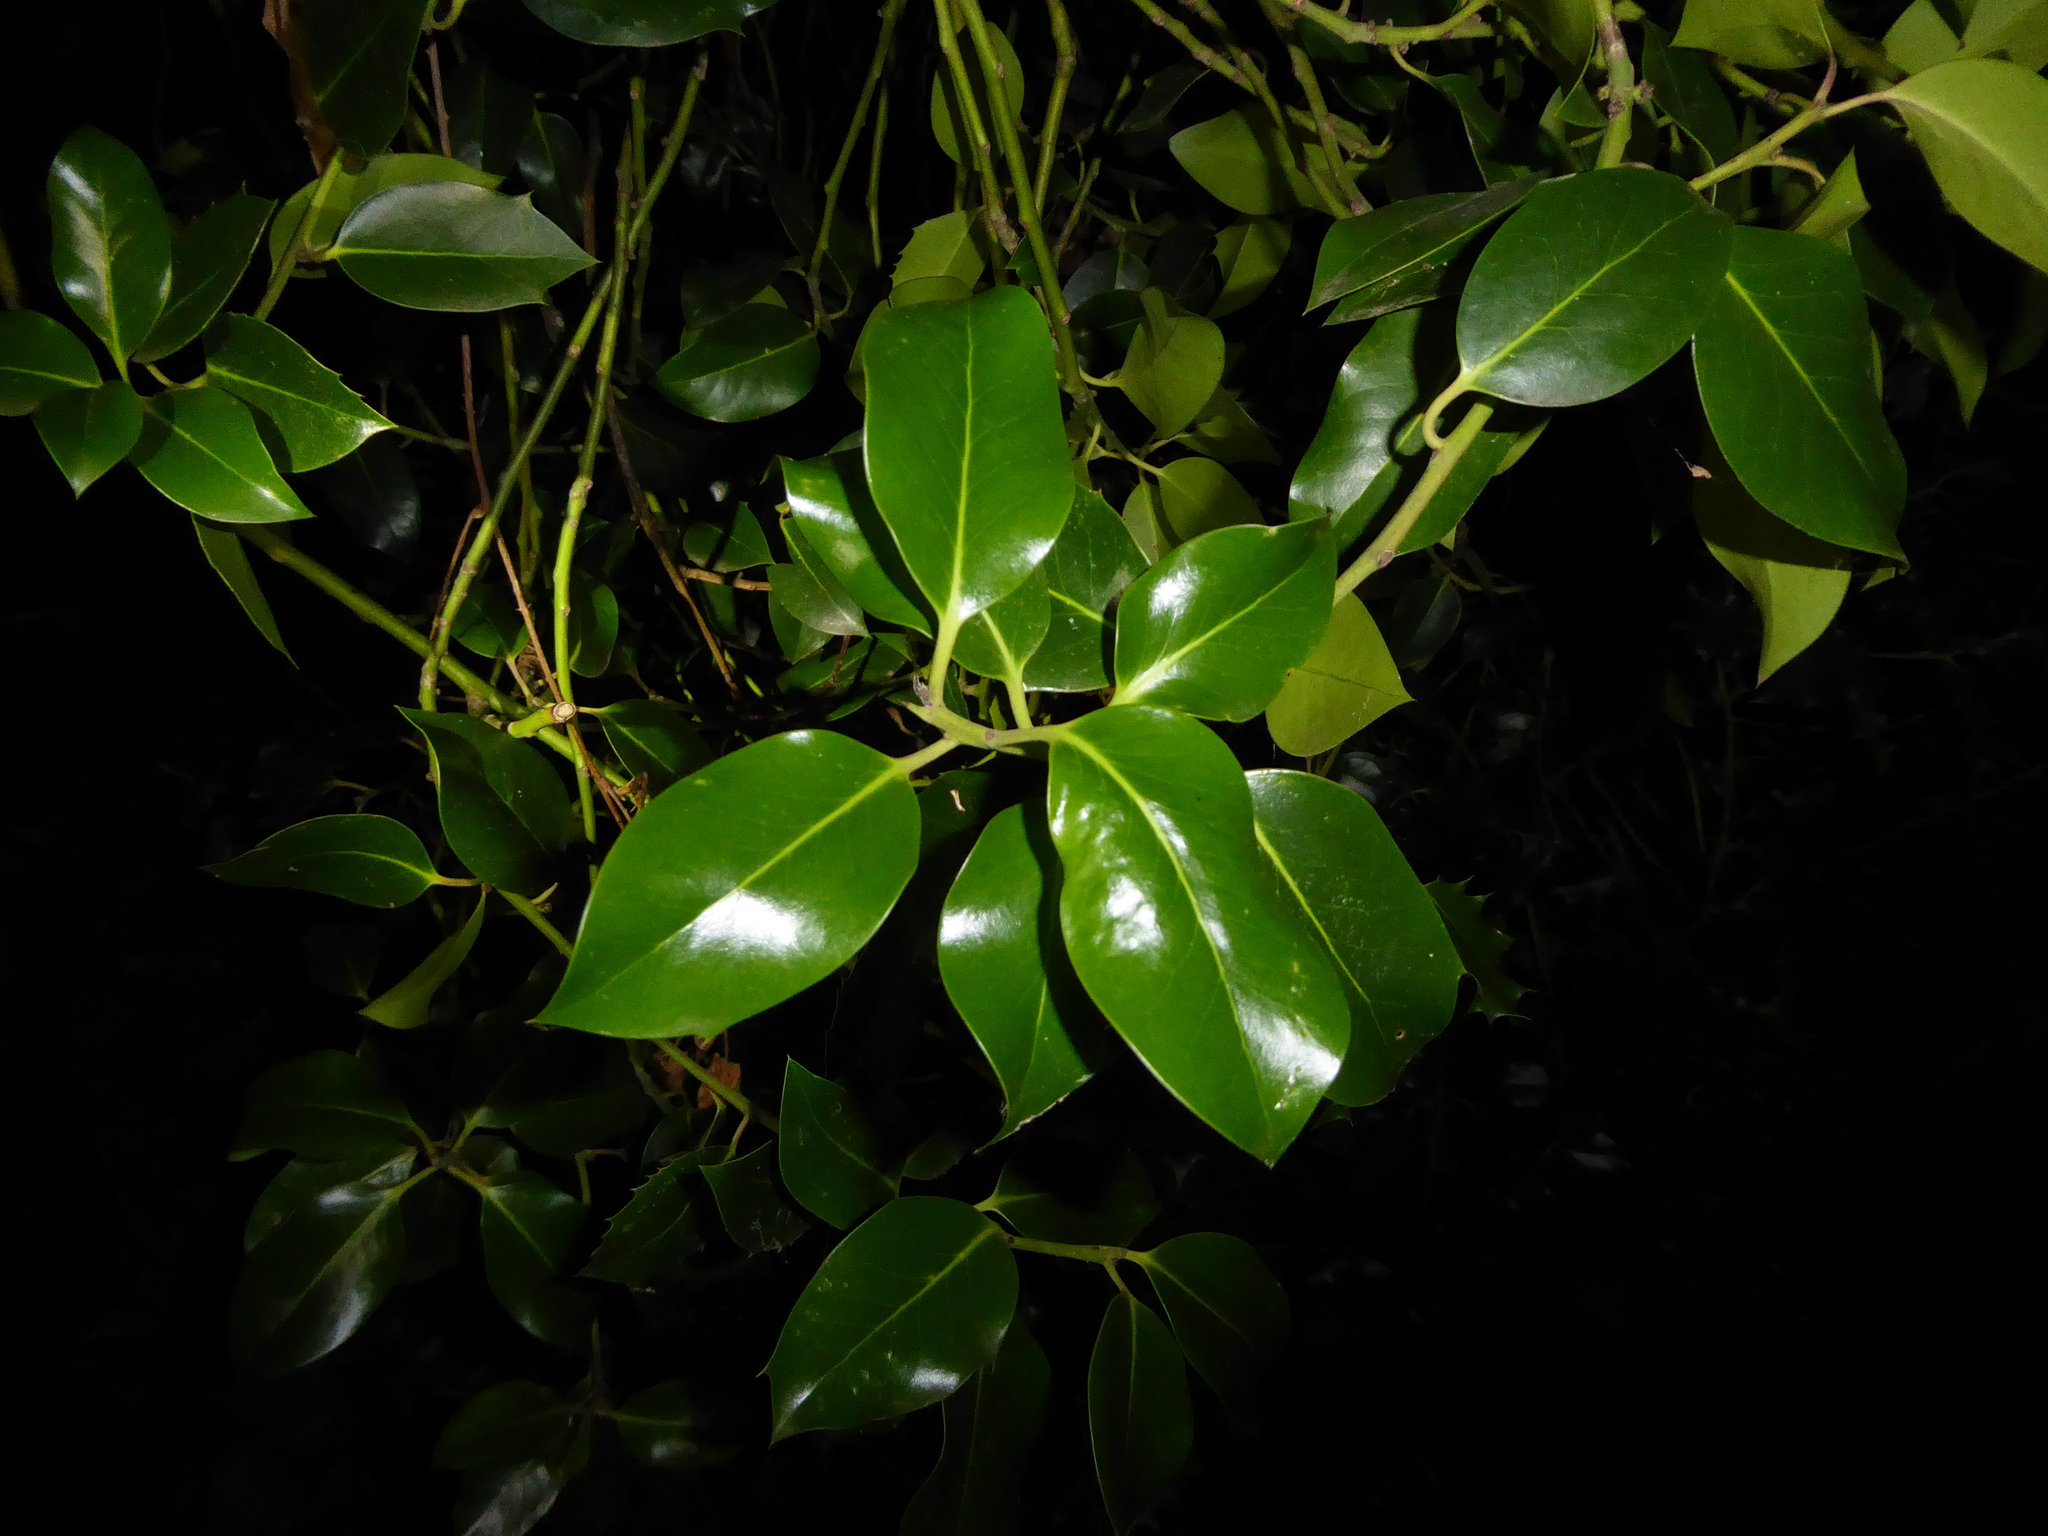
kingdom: Plantae
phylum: Tracheophyta
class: Magnoliopsida
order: Aquifoliales
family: Aquifoliaceae
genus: Ilex
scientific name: Ilex aquifolium
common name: English holly
